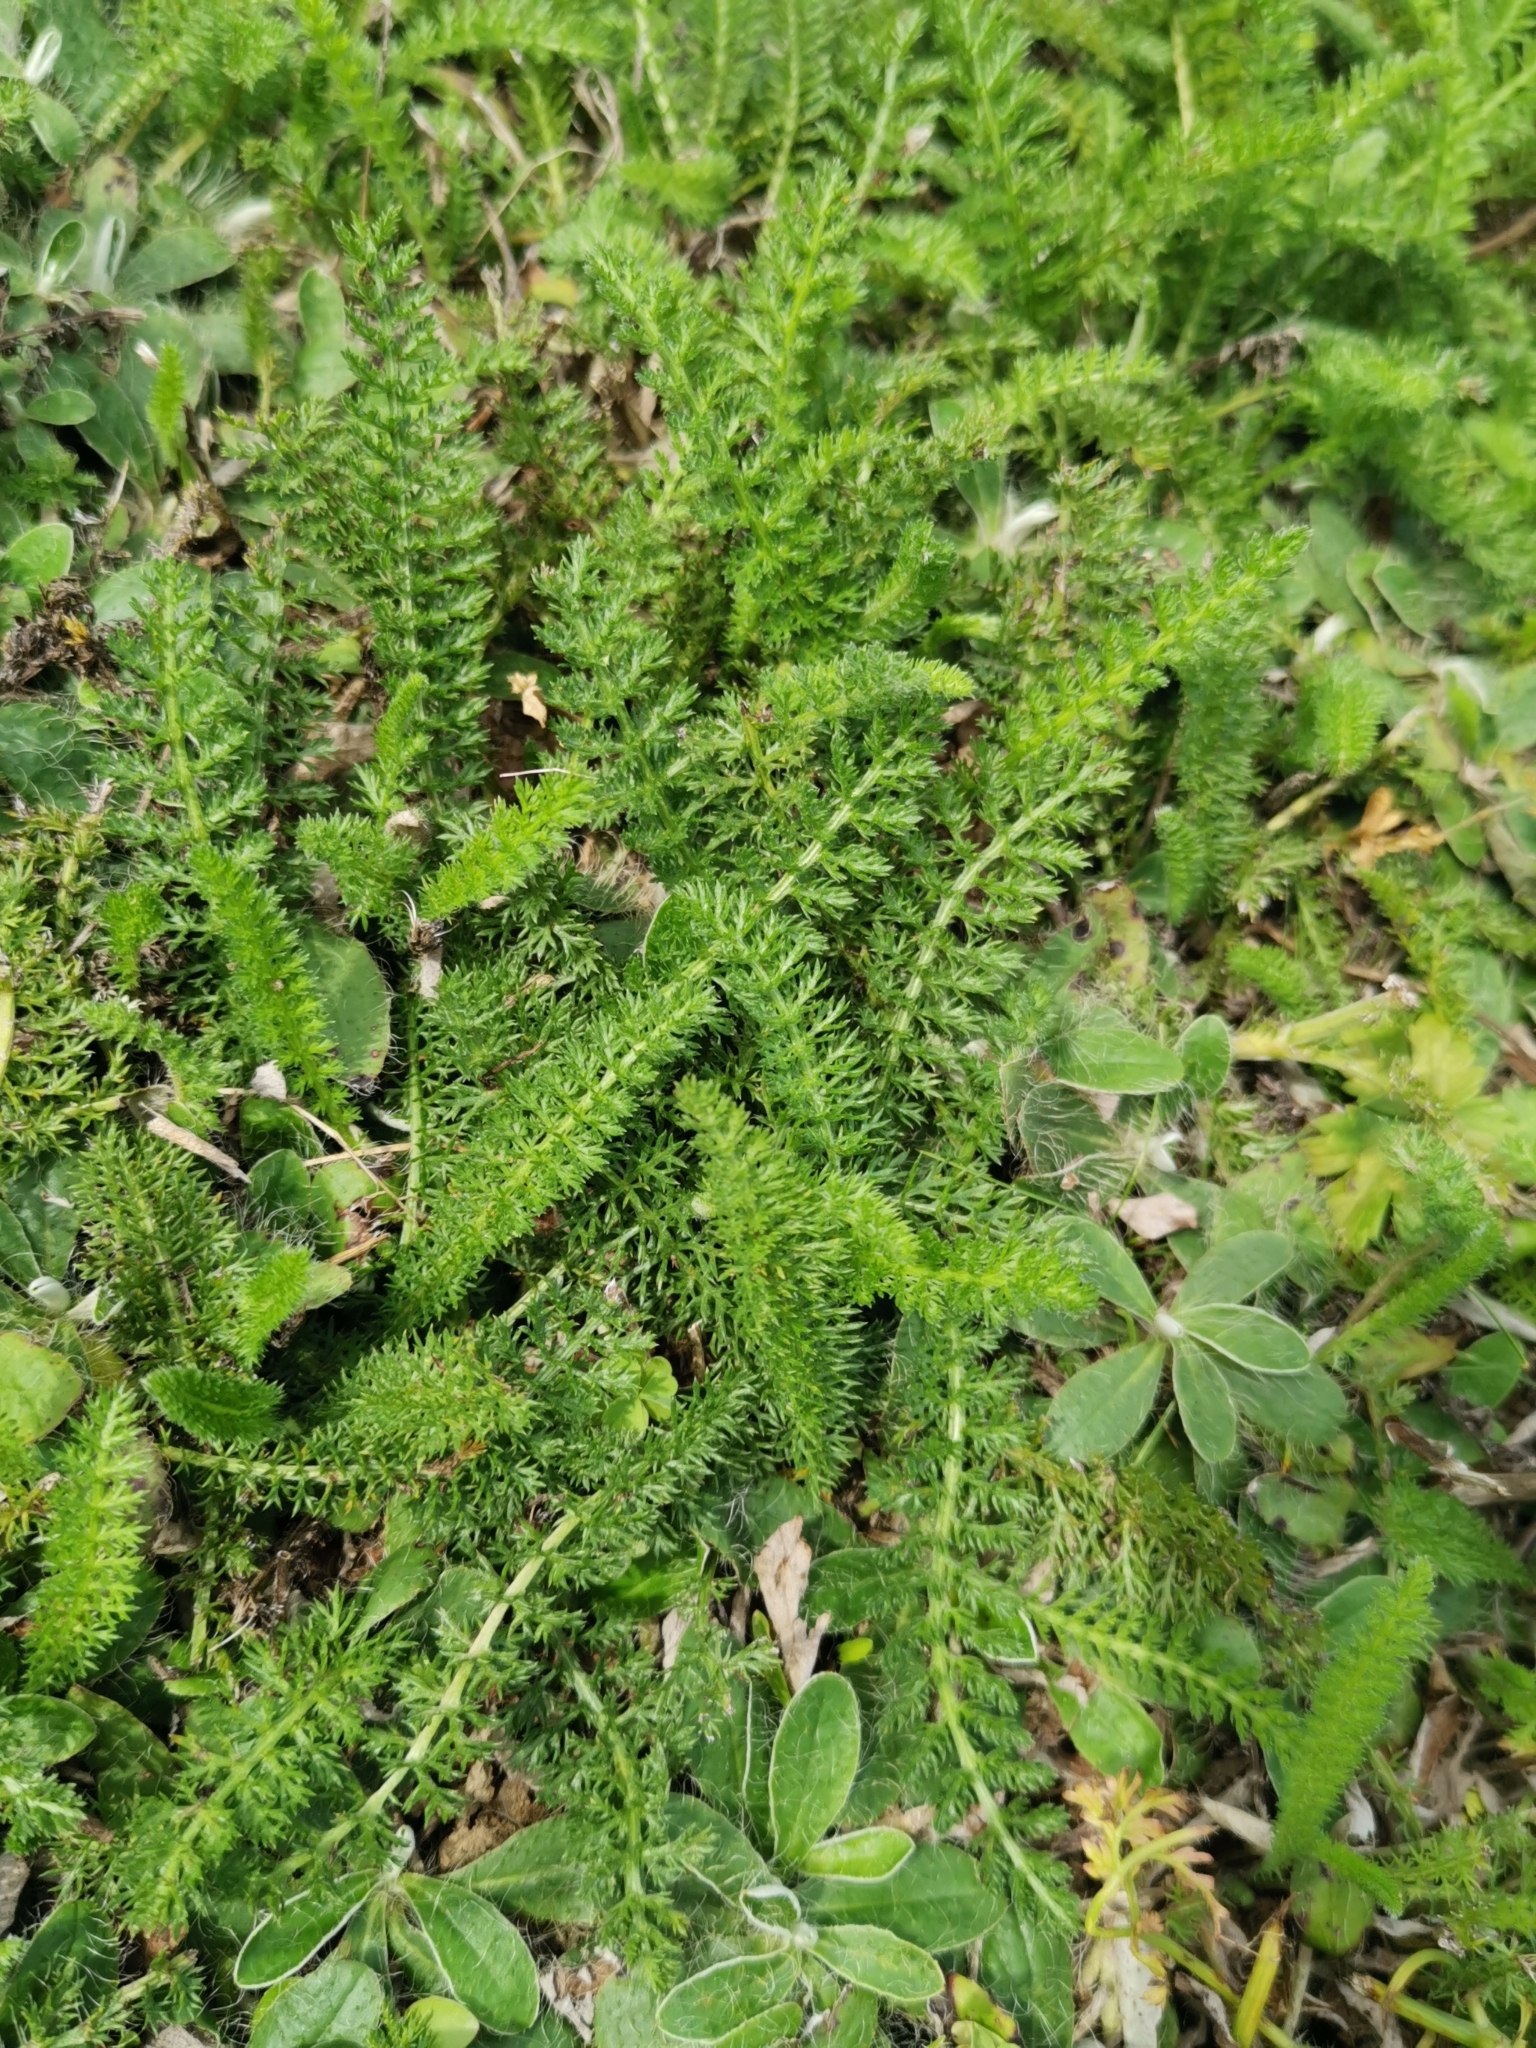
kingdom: Plantae
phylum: Tracheophyta
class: Magnoliopsida
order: Asterales
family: Asteraceae
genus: Achillea
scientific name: Achillea millefolium
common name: Yarrow
